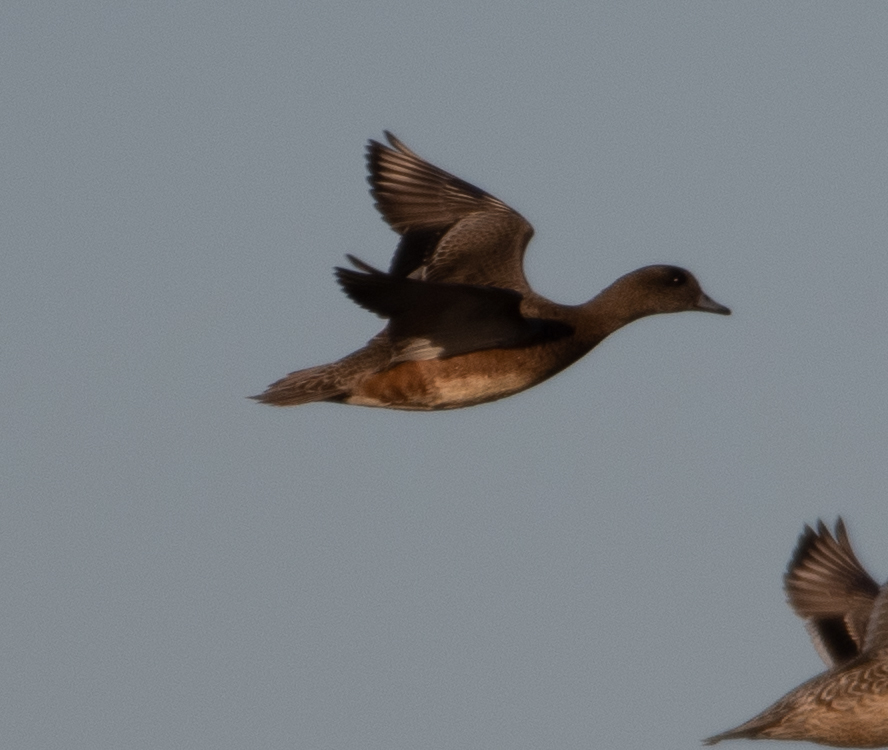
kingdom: Animalia
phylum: Chordata
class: Aves
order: Anseriformes
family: Anatidae
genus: Mareca
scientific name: Mareca americana
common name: American wigeon
